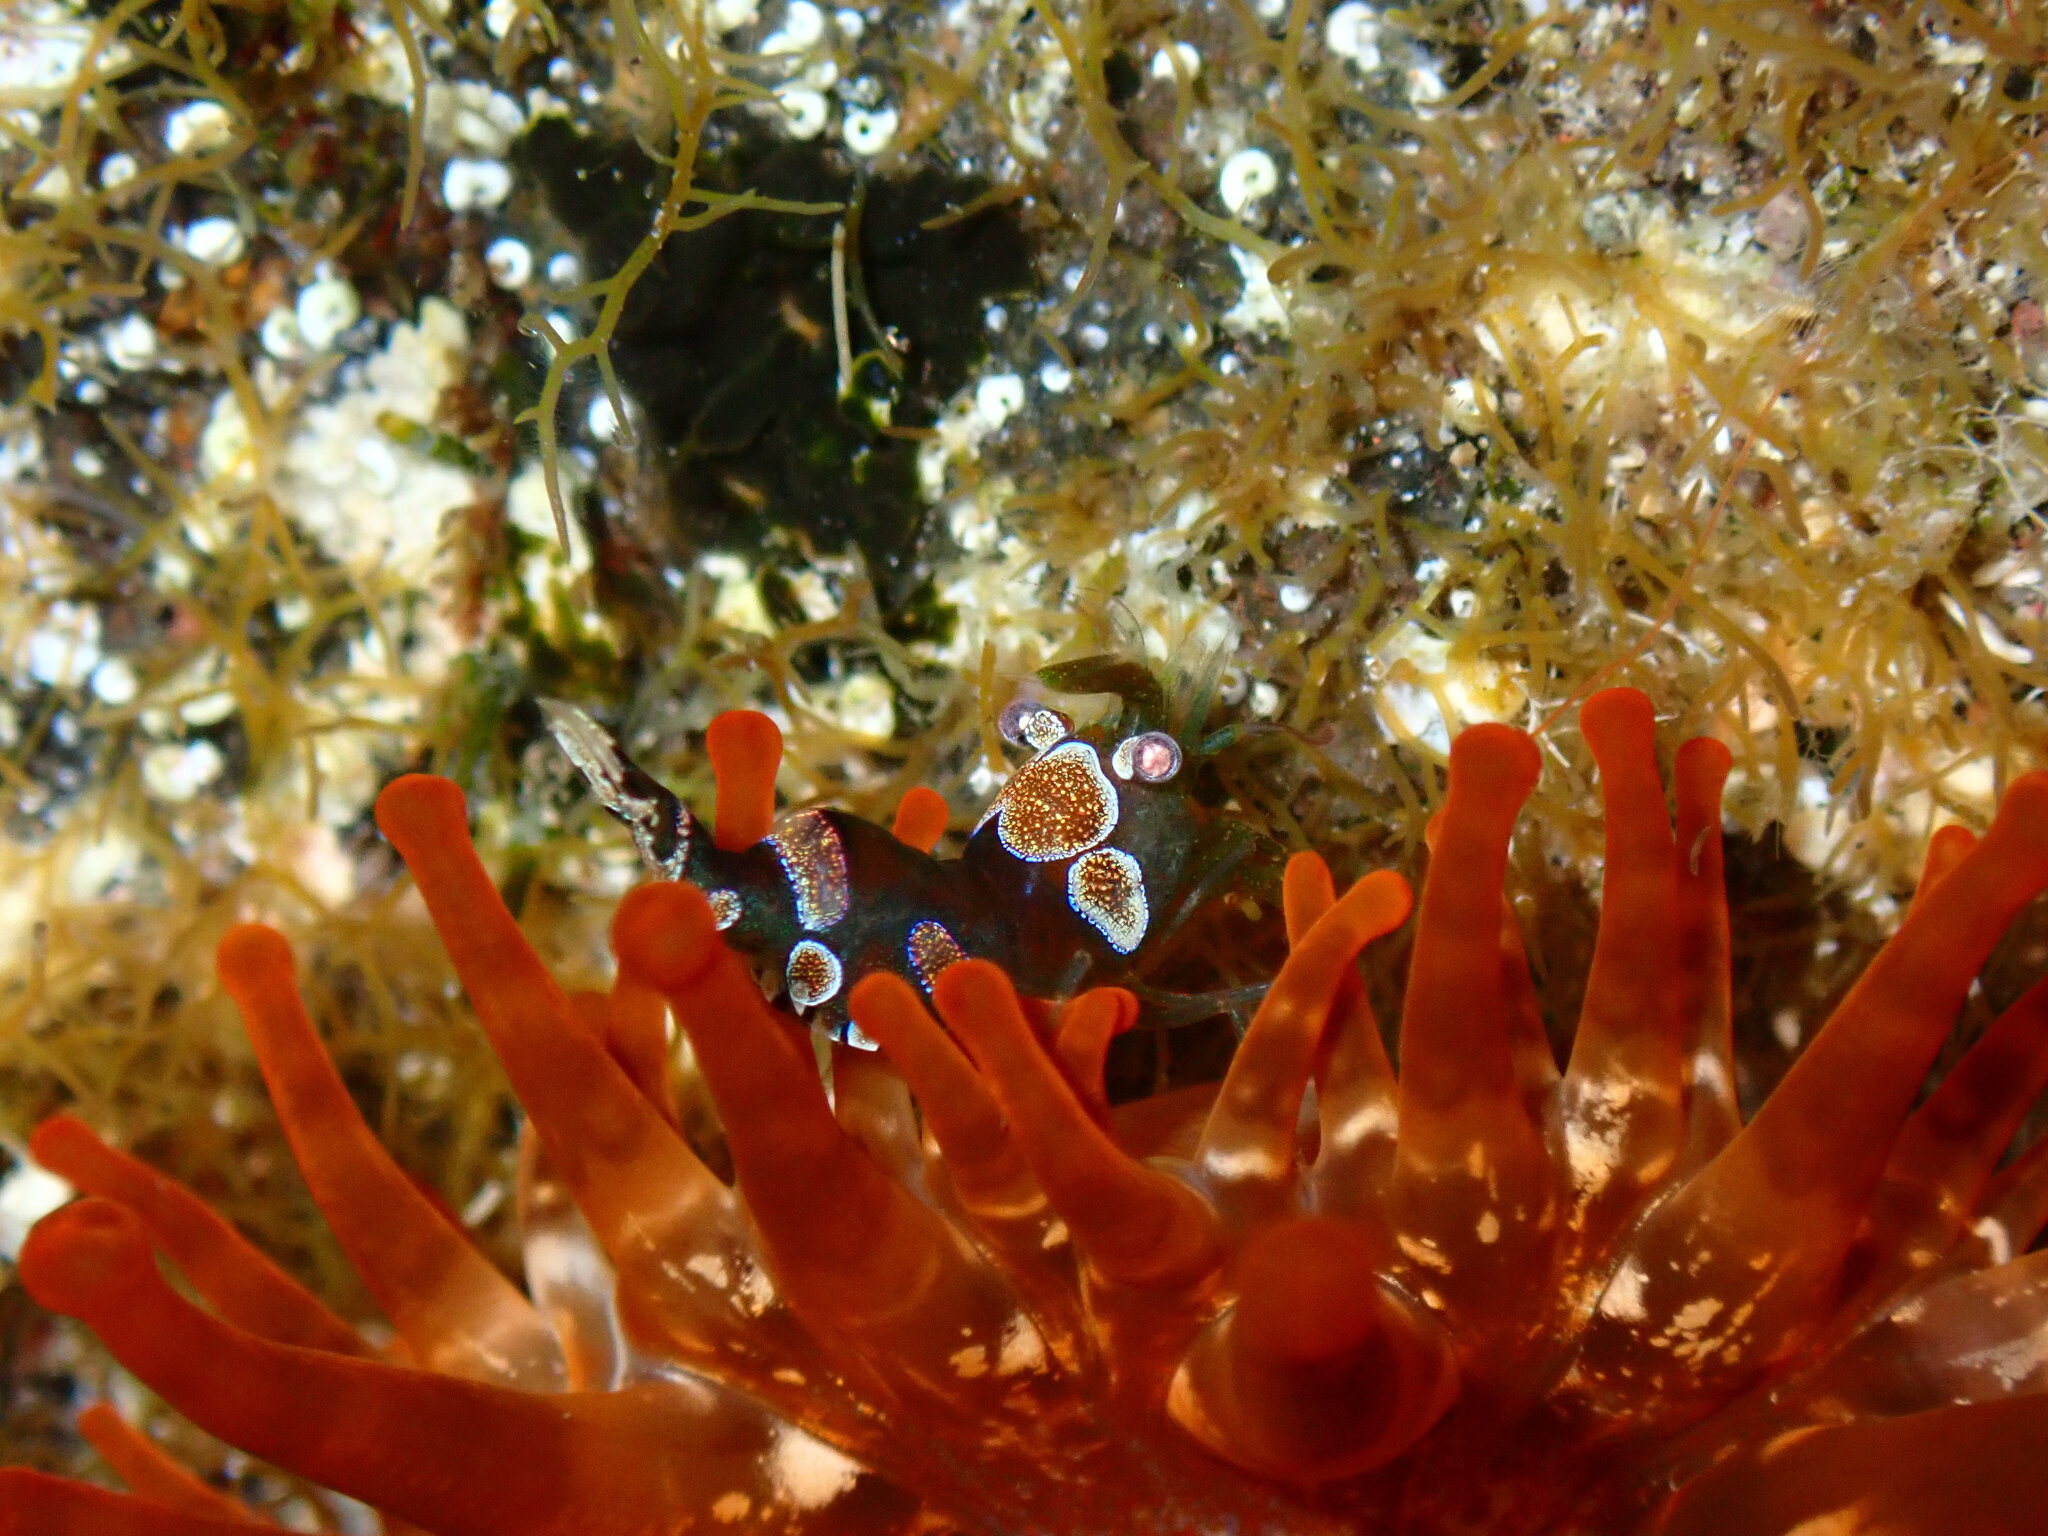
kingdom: Animalia
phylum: Arthropoda
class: Malacostraca
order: Decapoda
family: Thoridae
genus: Thor
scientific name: Thor amboinensis
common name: Squat anemone shrimp
